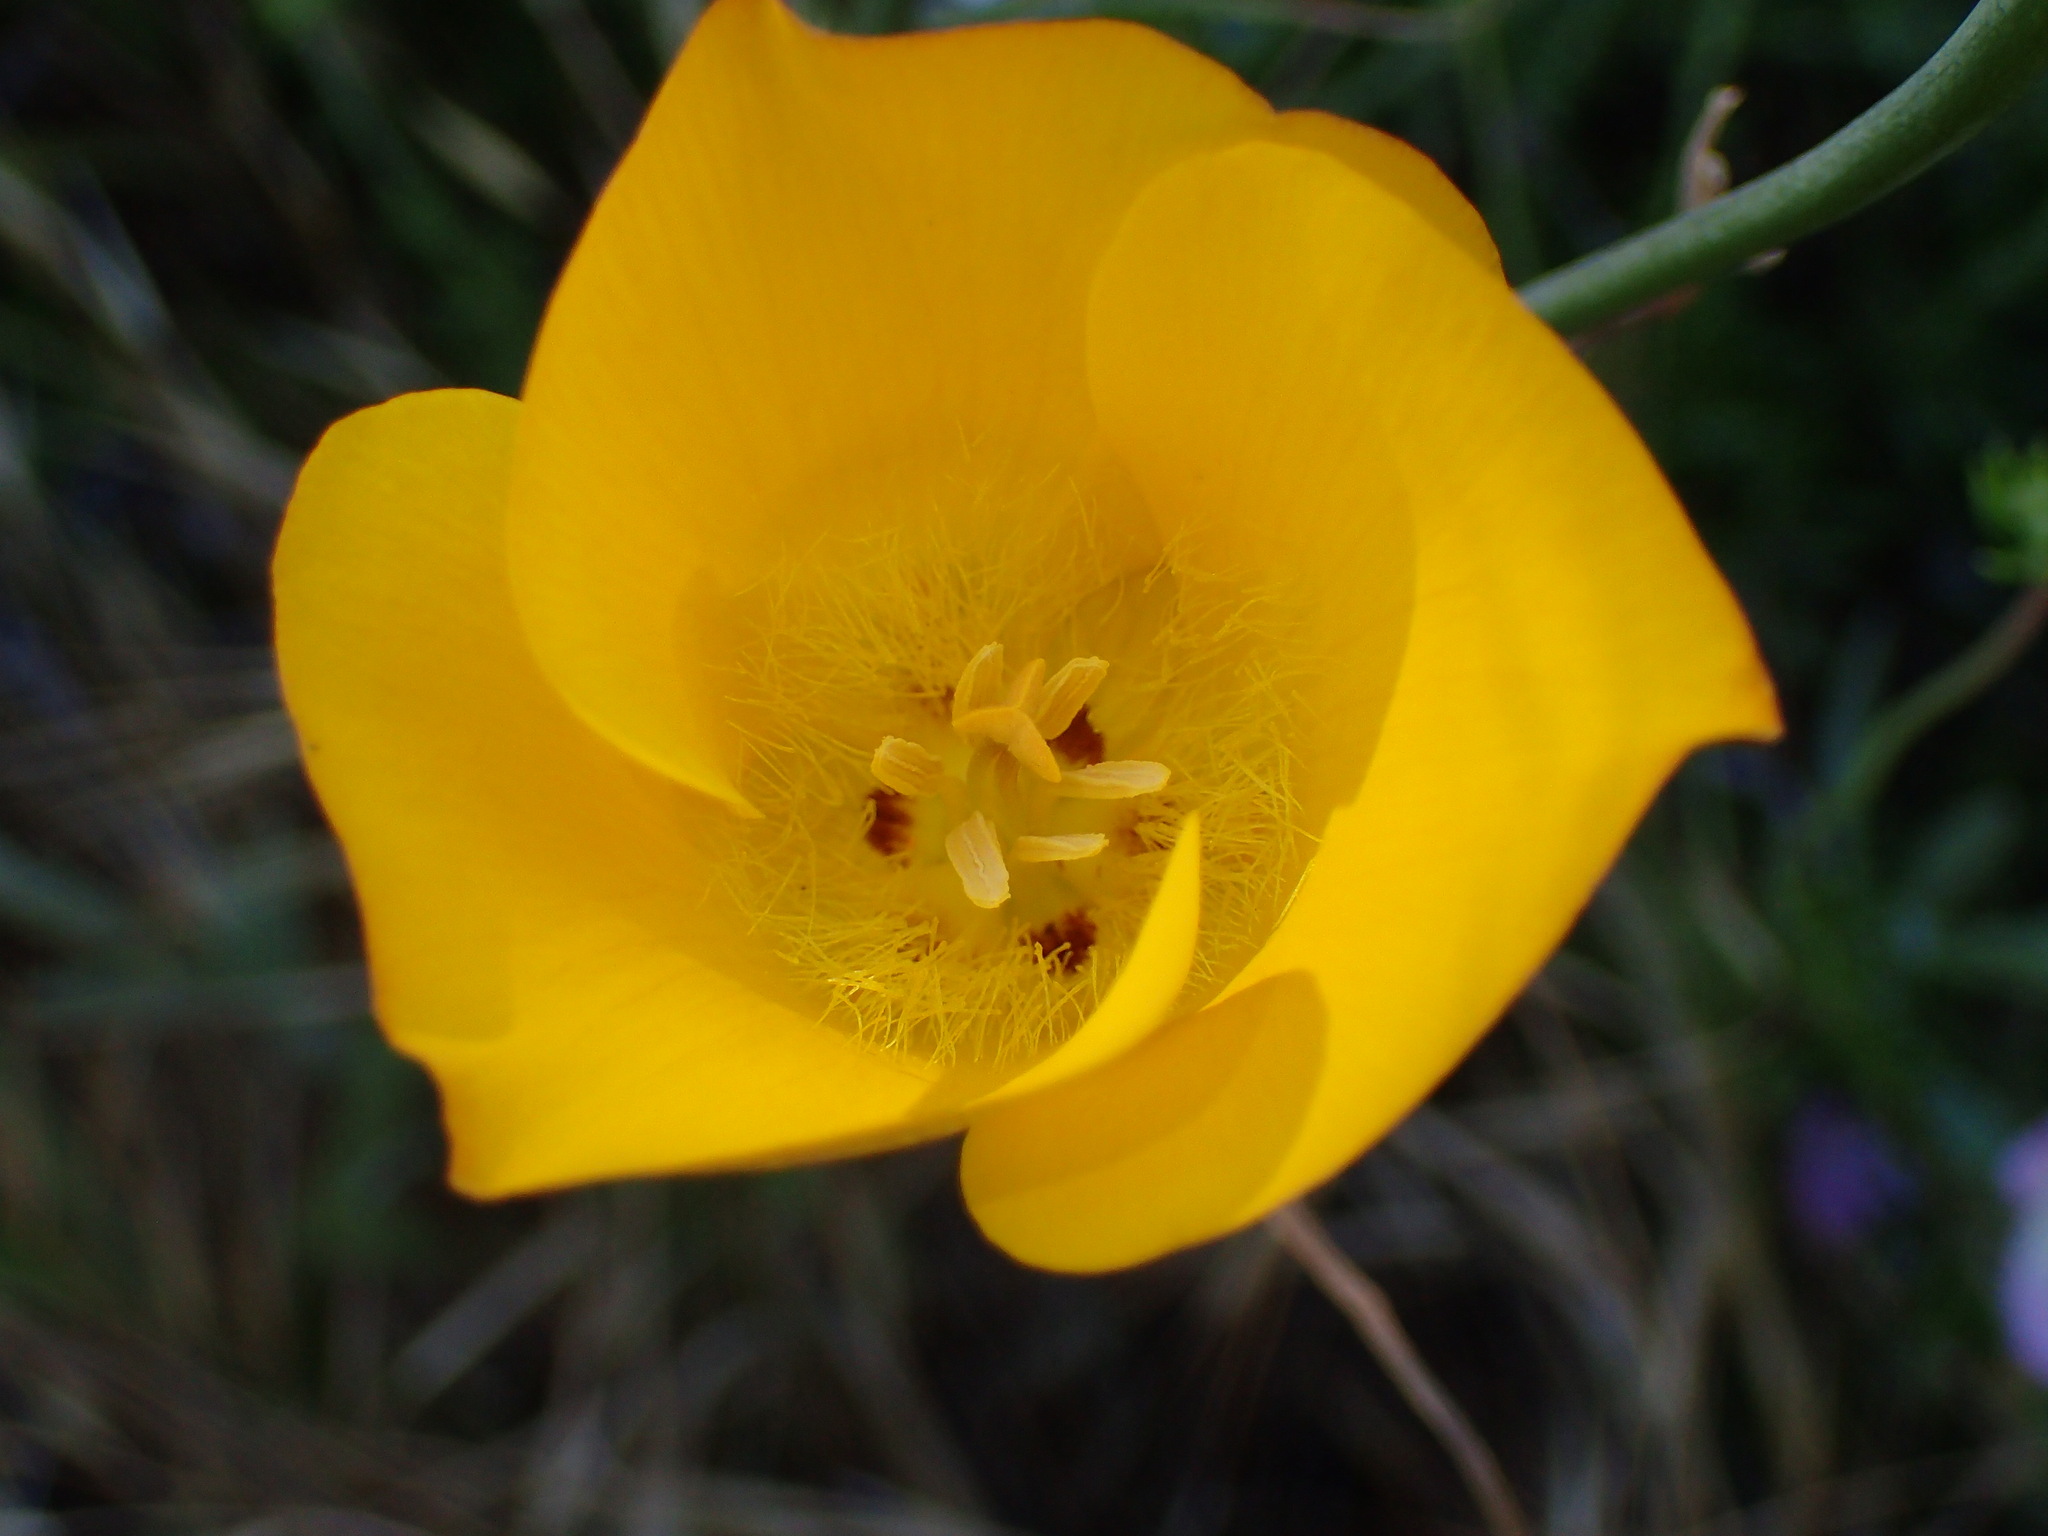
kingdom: Plantae
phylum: Tracheophyta
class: Liliopsida
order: Liliales
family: Liliaceae
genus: Calochortus
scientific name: Calochortus clavatus
